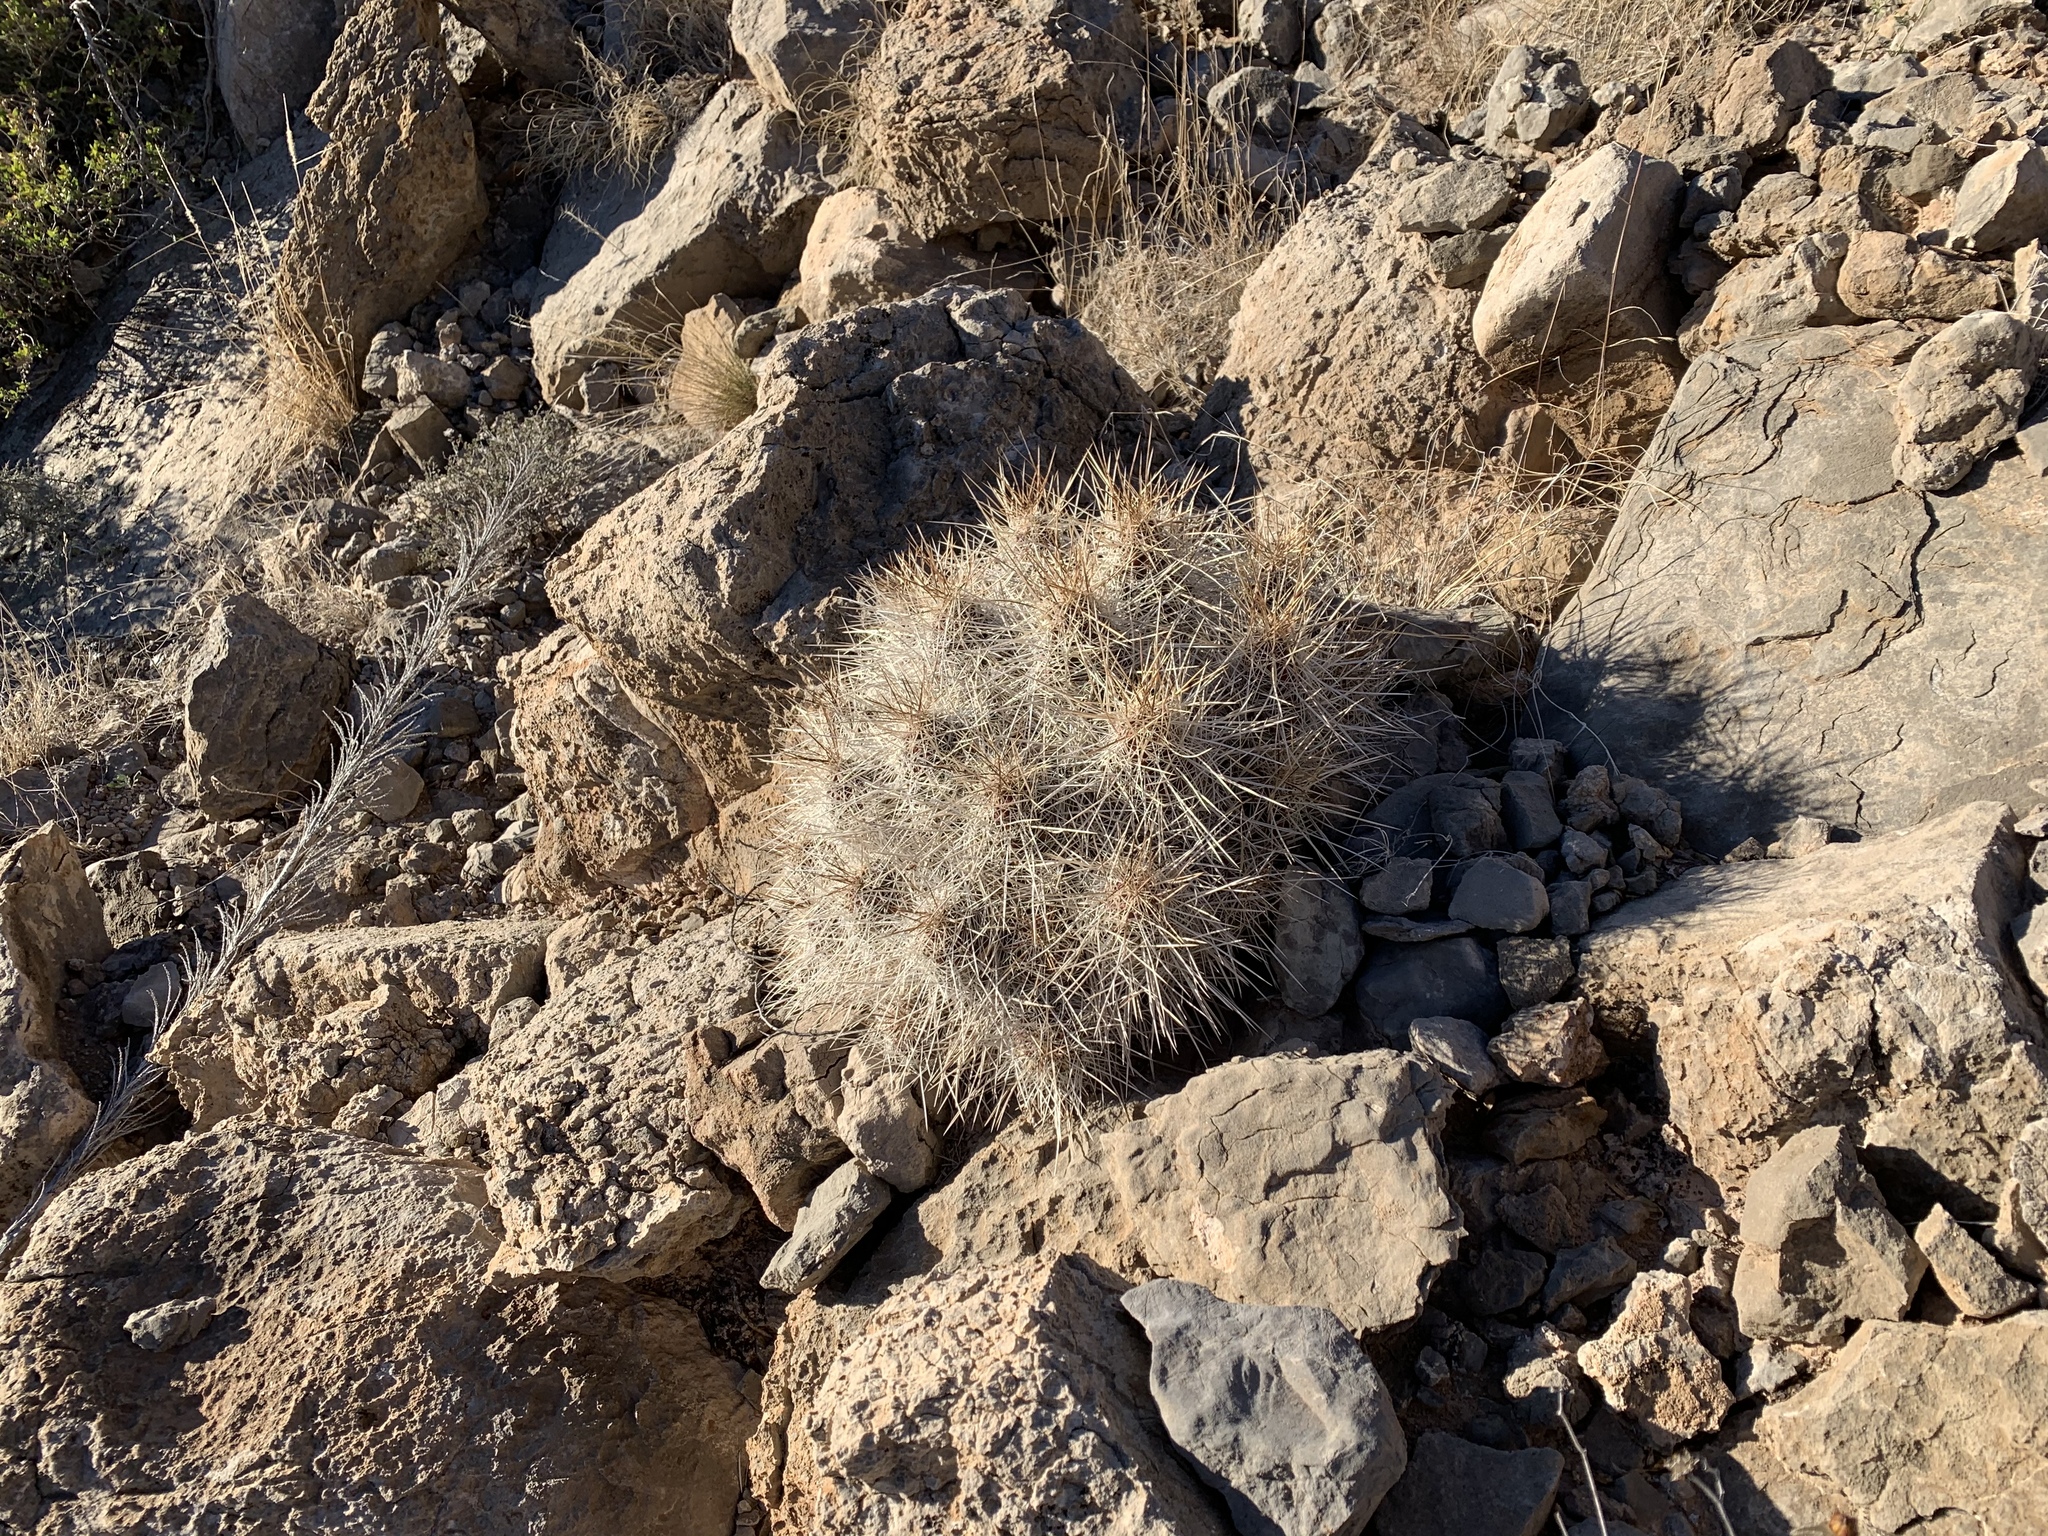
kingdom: Plantae
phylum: Tracheophyta
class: Magnoliopsida
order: Caryophyllales
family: Cactaceae
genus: Echinocereus
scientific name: Echinocereus stramineus
